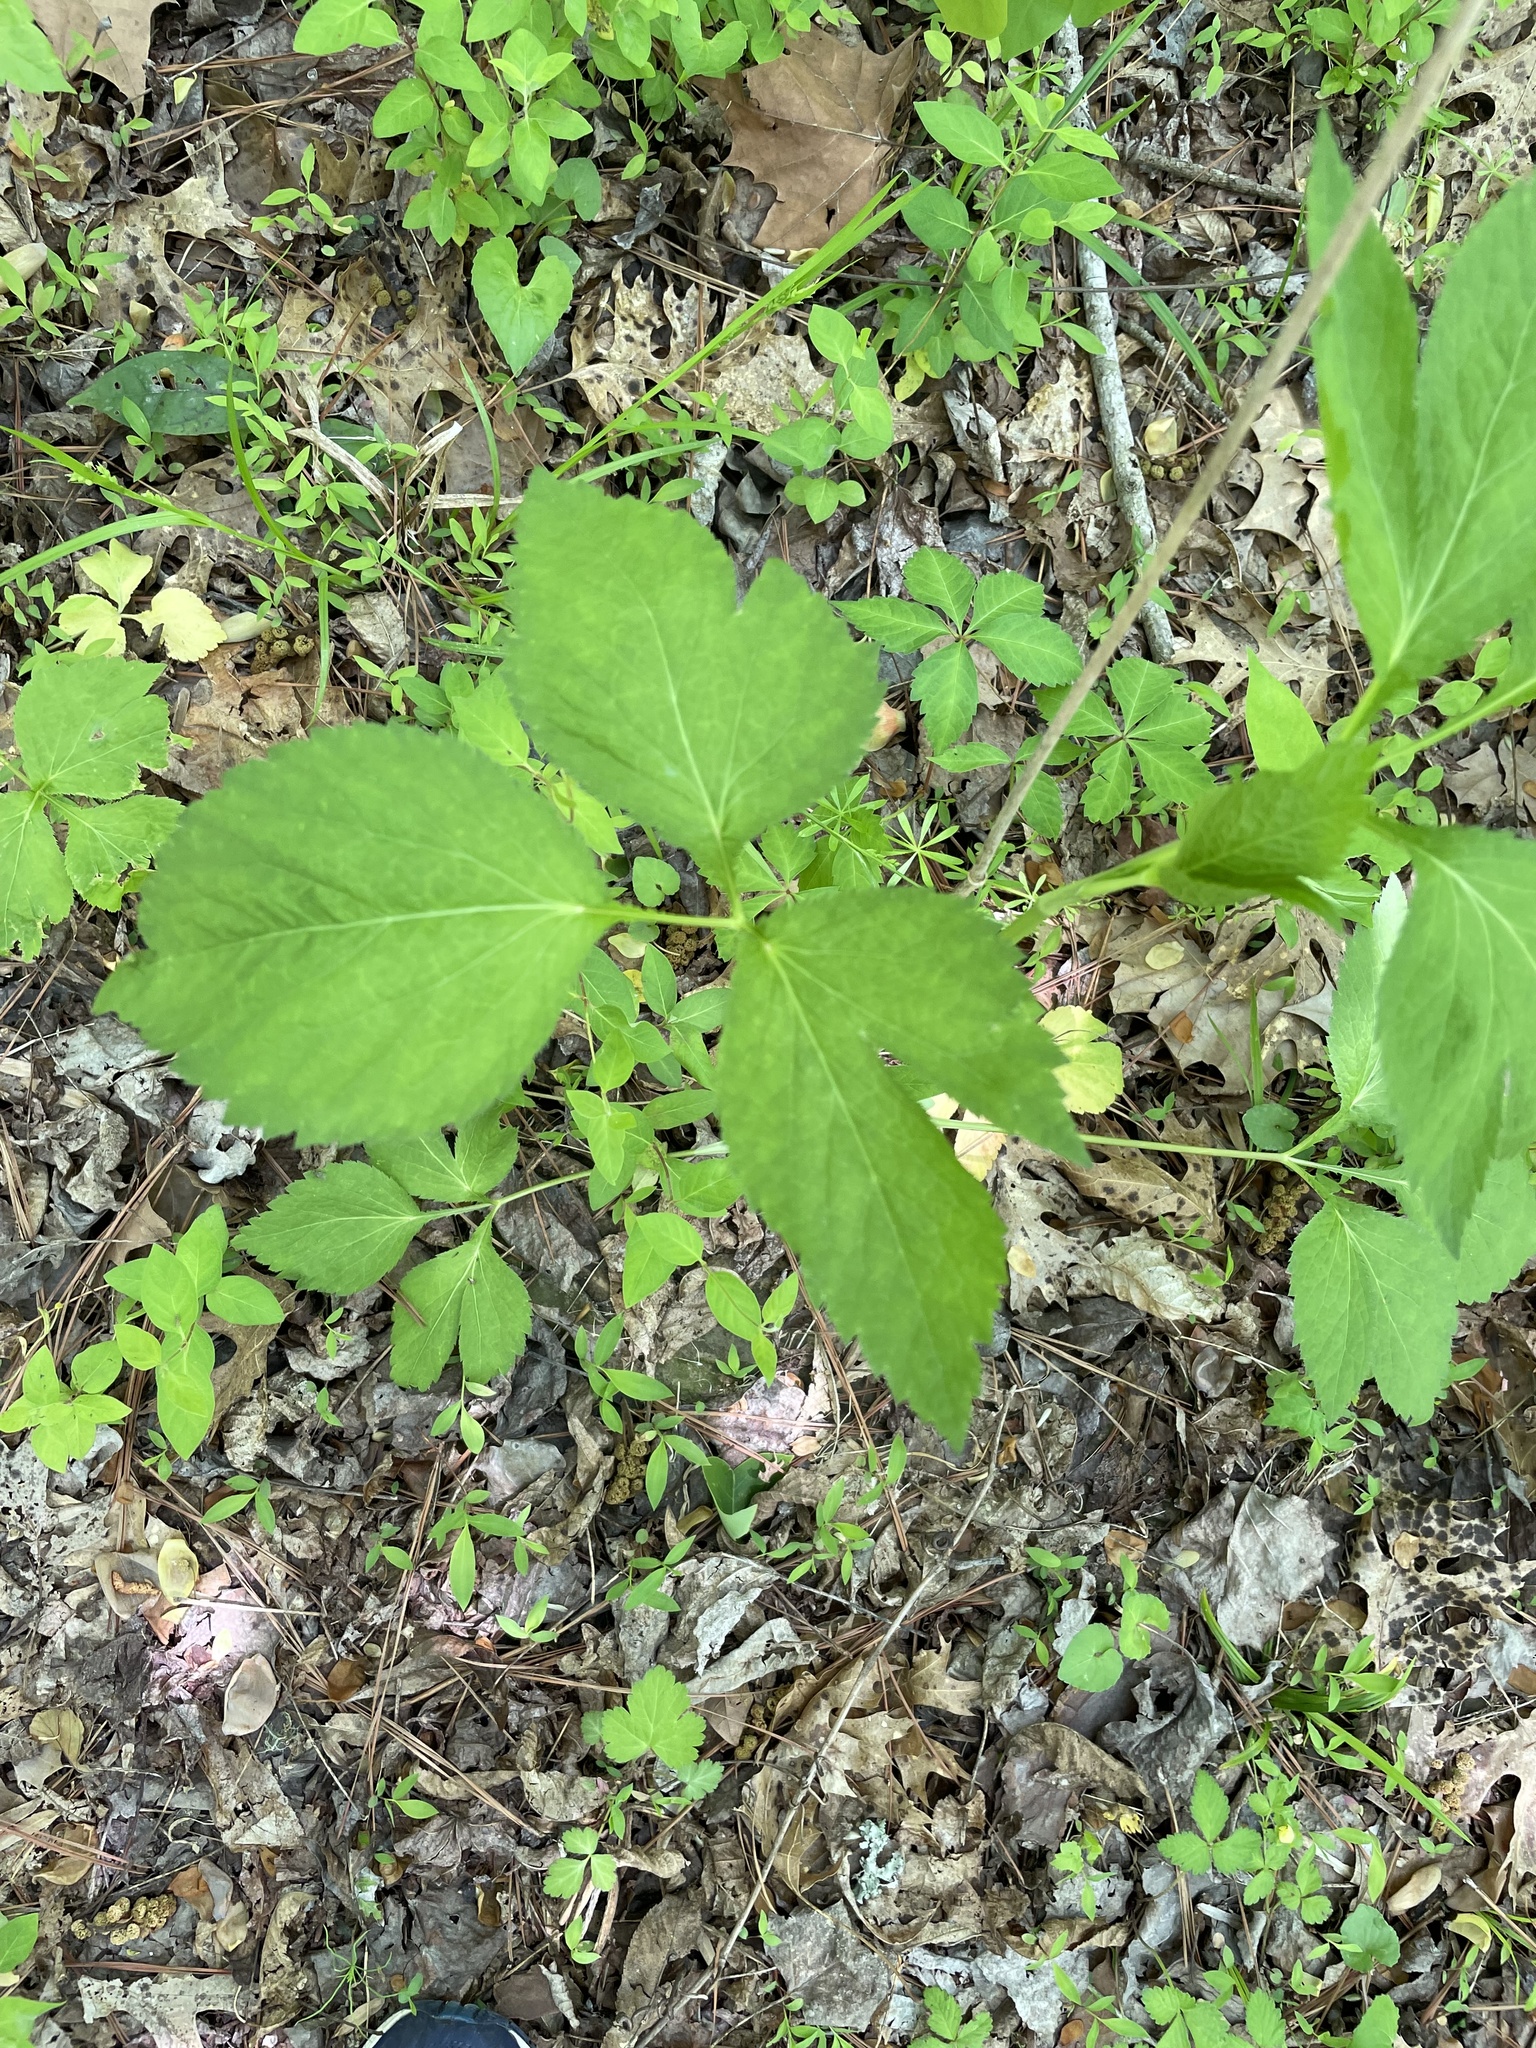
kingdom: Plantae
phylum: Tracheophyta
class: Magnoliopsida
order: Apiales
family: Apiaceae
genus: Cryptotaenia
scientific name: Cryptotaenia canadensis
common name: Honewort
